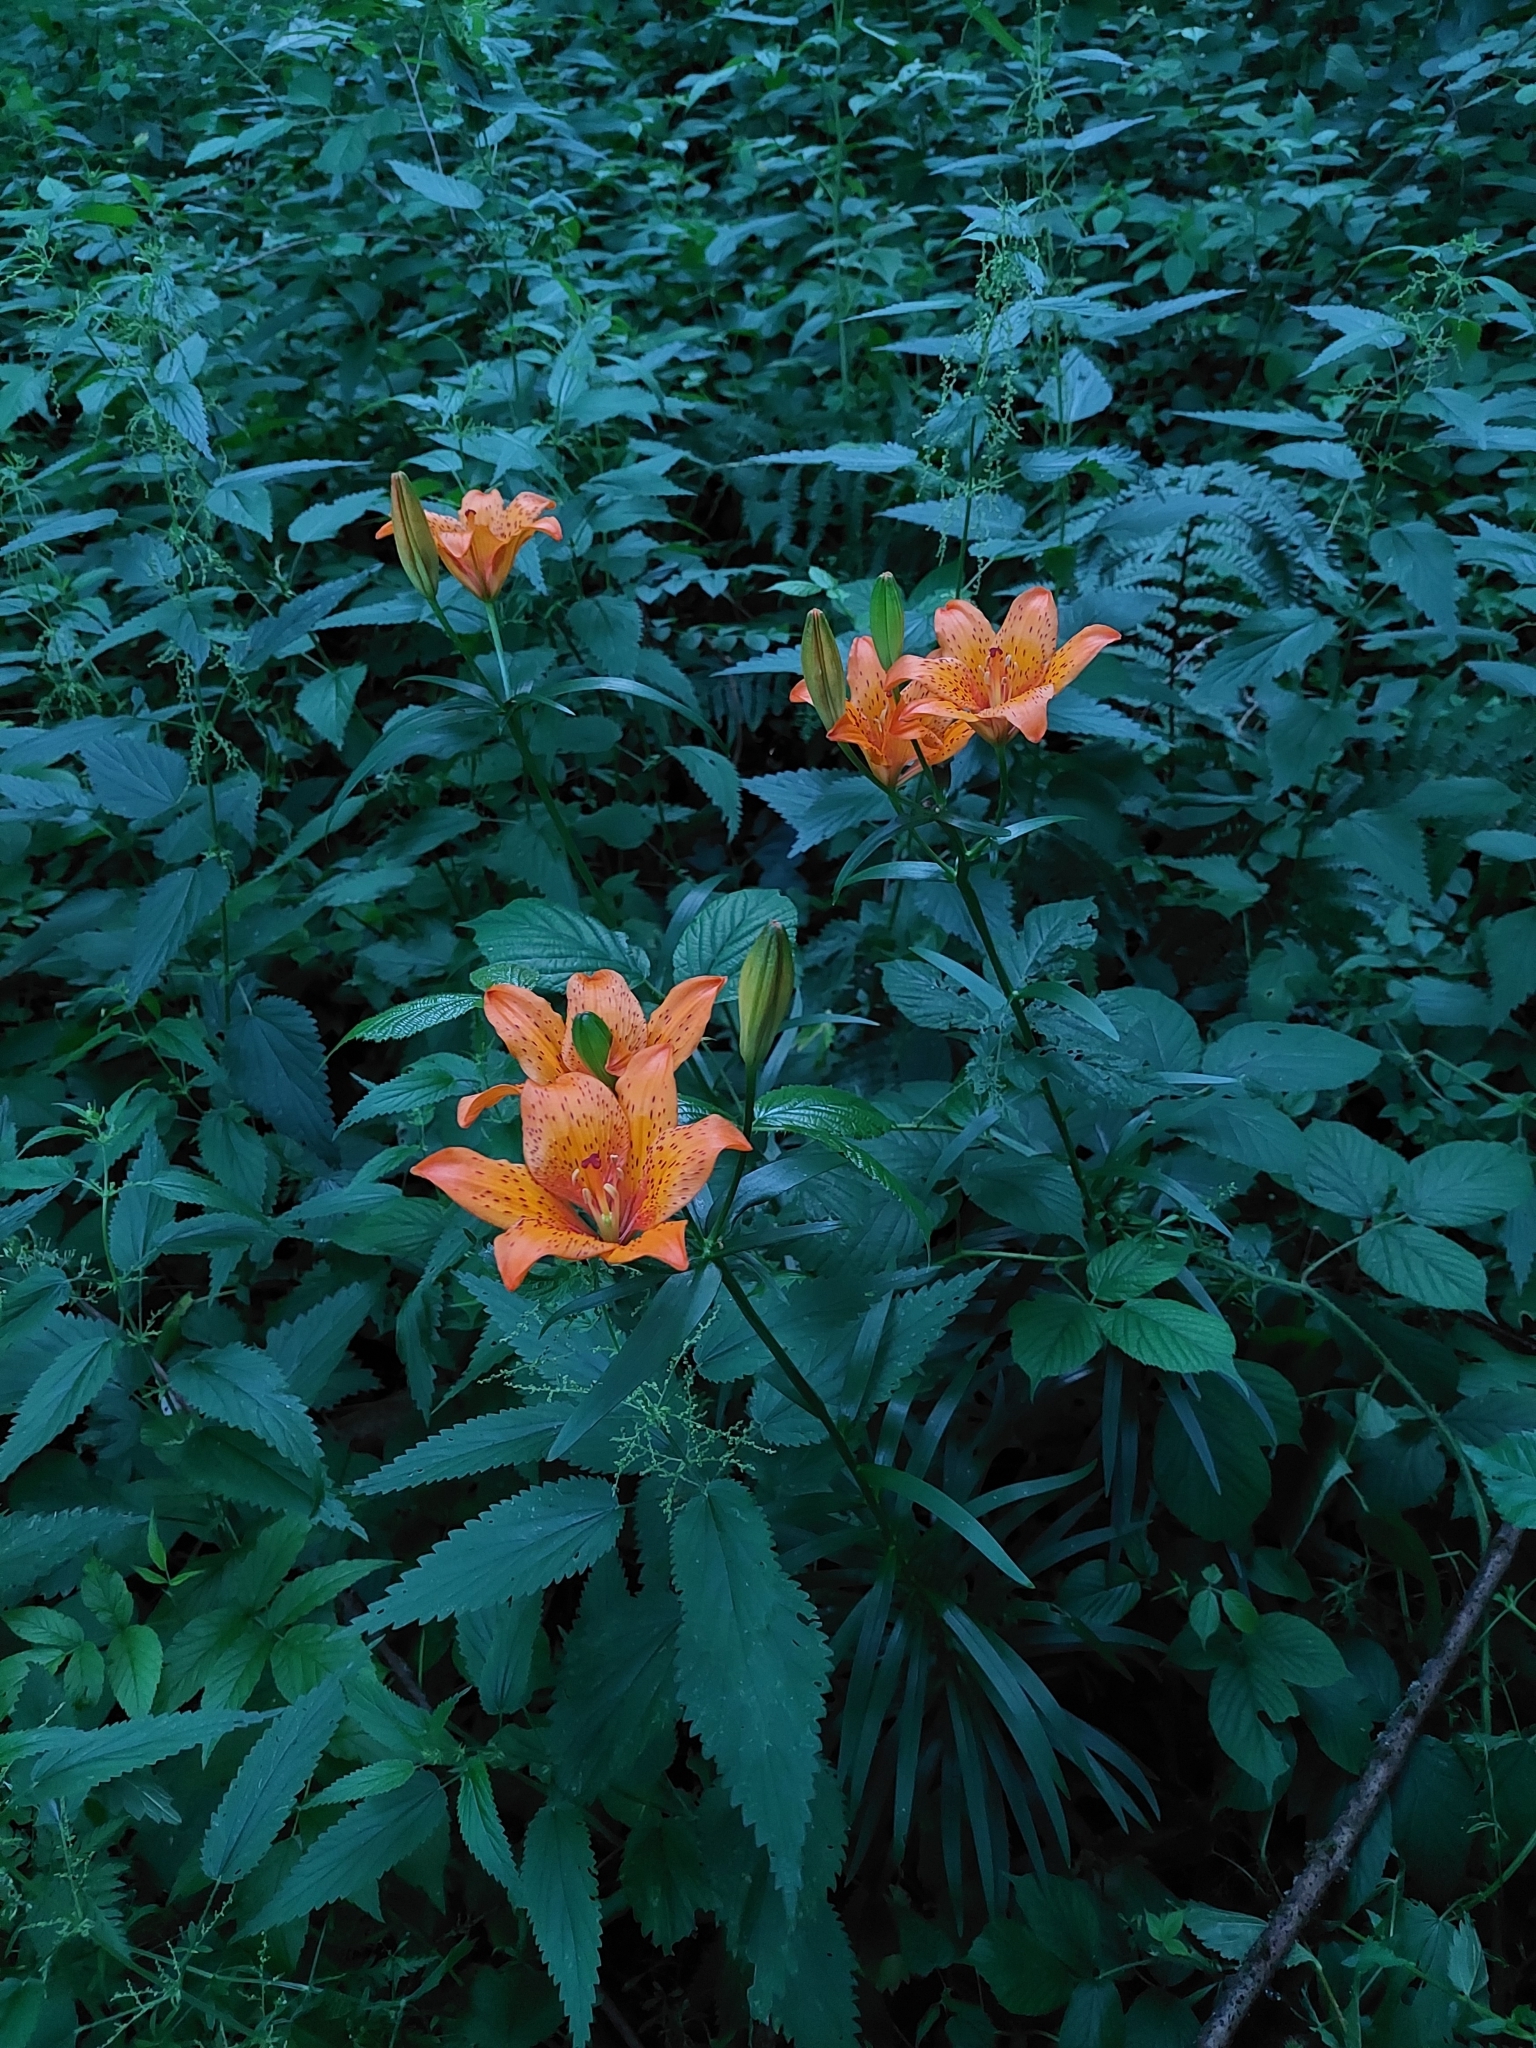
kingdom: Plantae
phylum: Tracheophyta
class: Liliopsida
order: Liliales
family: Liliaceae
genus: Lilium
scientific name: Lilium bulbiferum
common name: Orange lily
